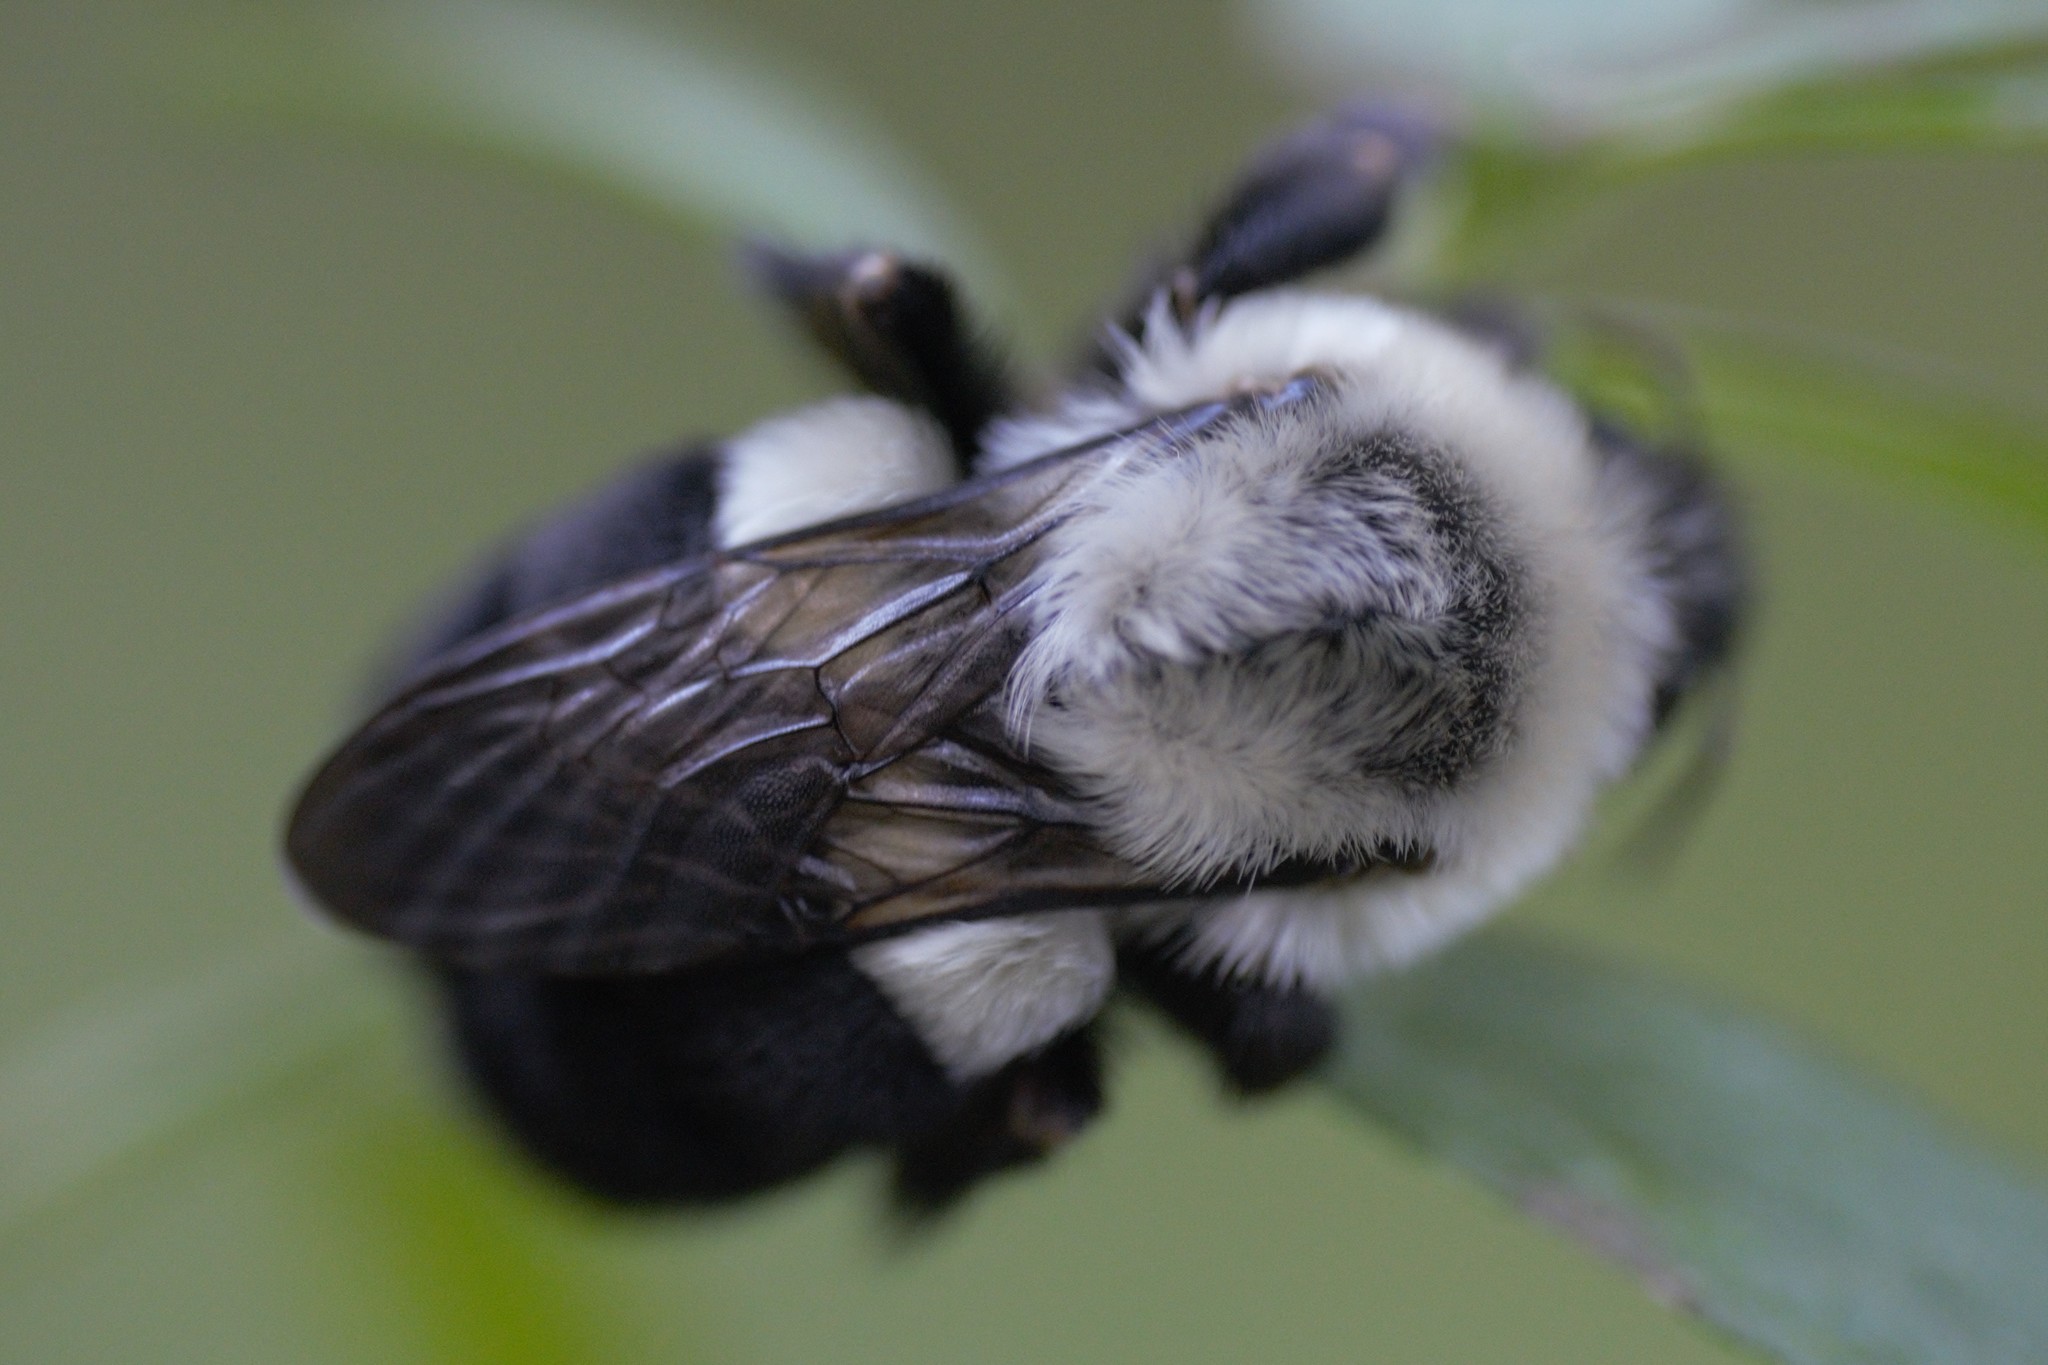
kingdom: Animalia
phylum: Arthropoda
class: Insecta
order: Hymenoptera
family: Apidae
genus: Bombus
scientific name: Bombus impatiens
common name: Common eastern bumble bee
